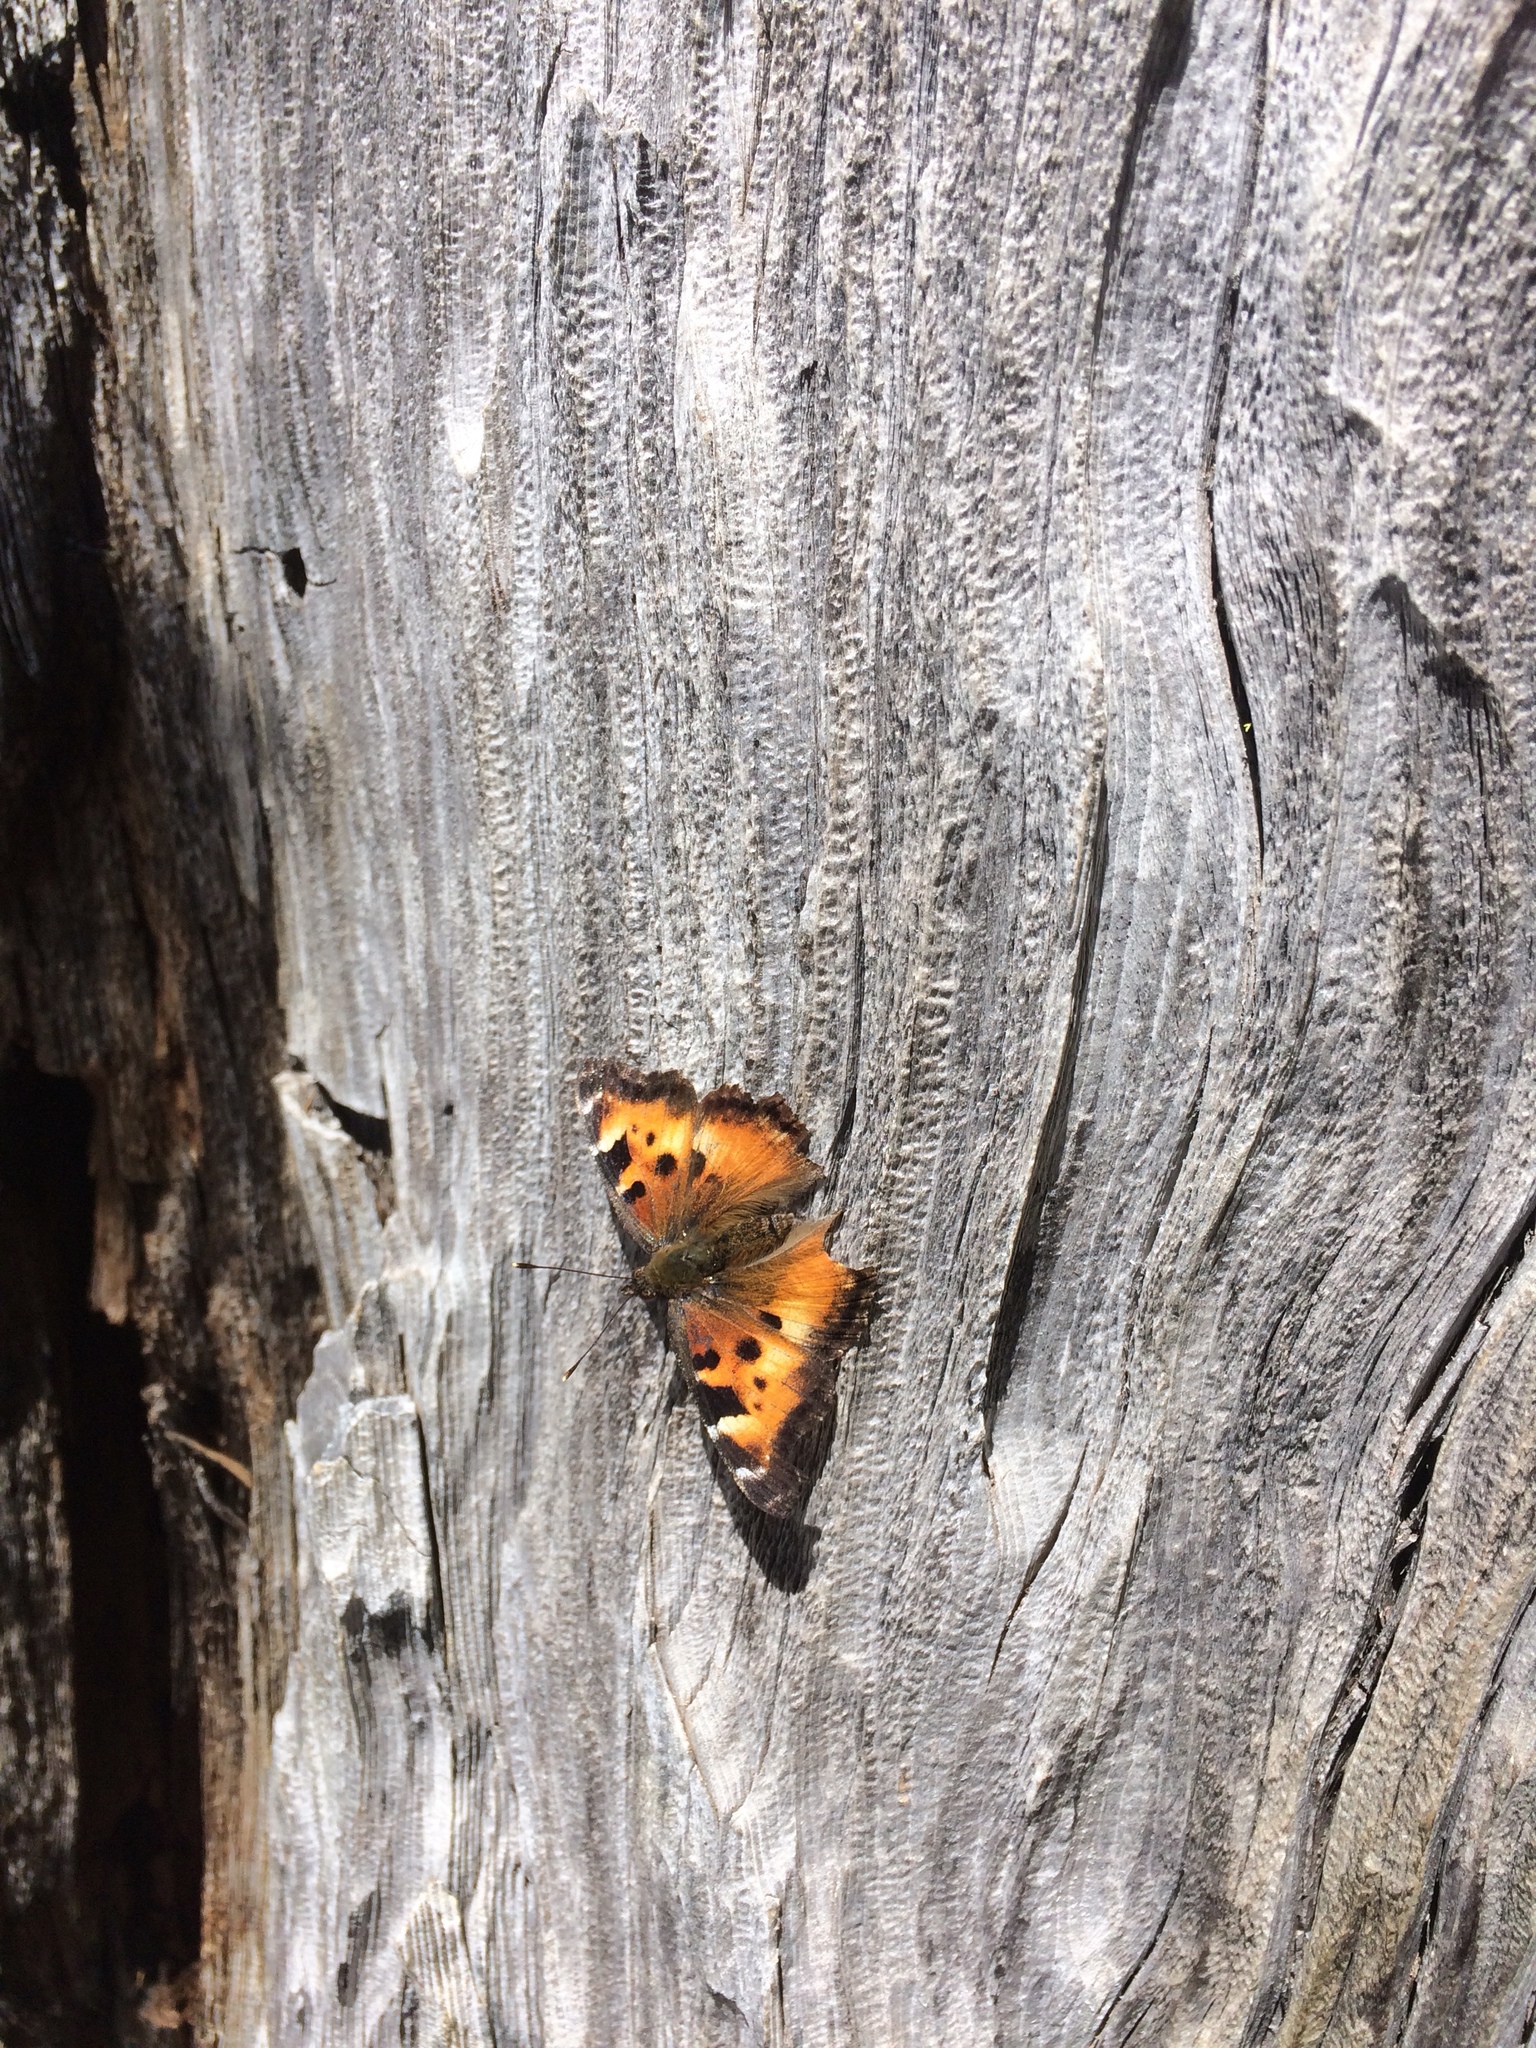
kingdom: Animalia
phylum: Arthropoda
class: Insecta
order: Lepidoptera
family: Nymphalidae
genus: Nymphalis
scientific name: Nymphalis californica
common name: California tortoiseshell
